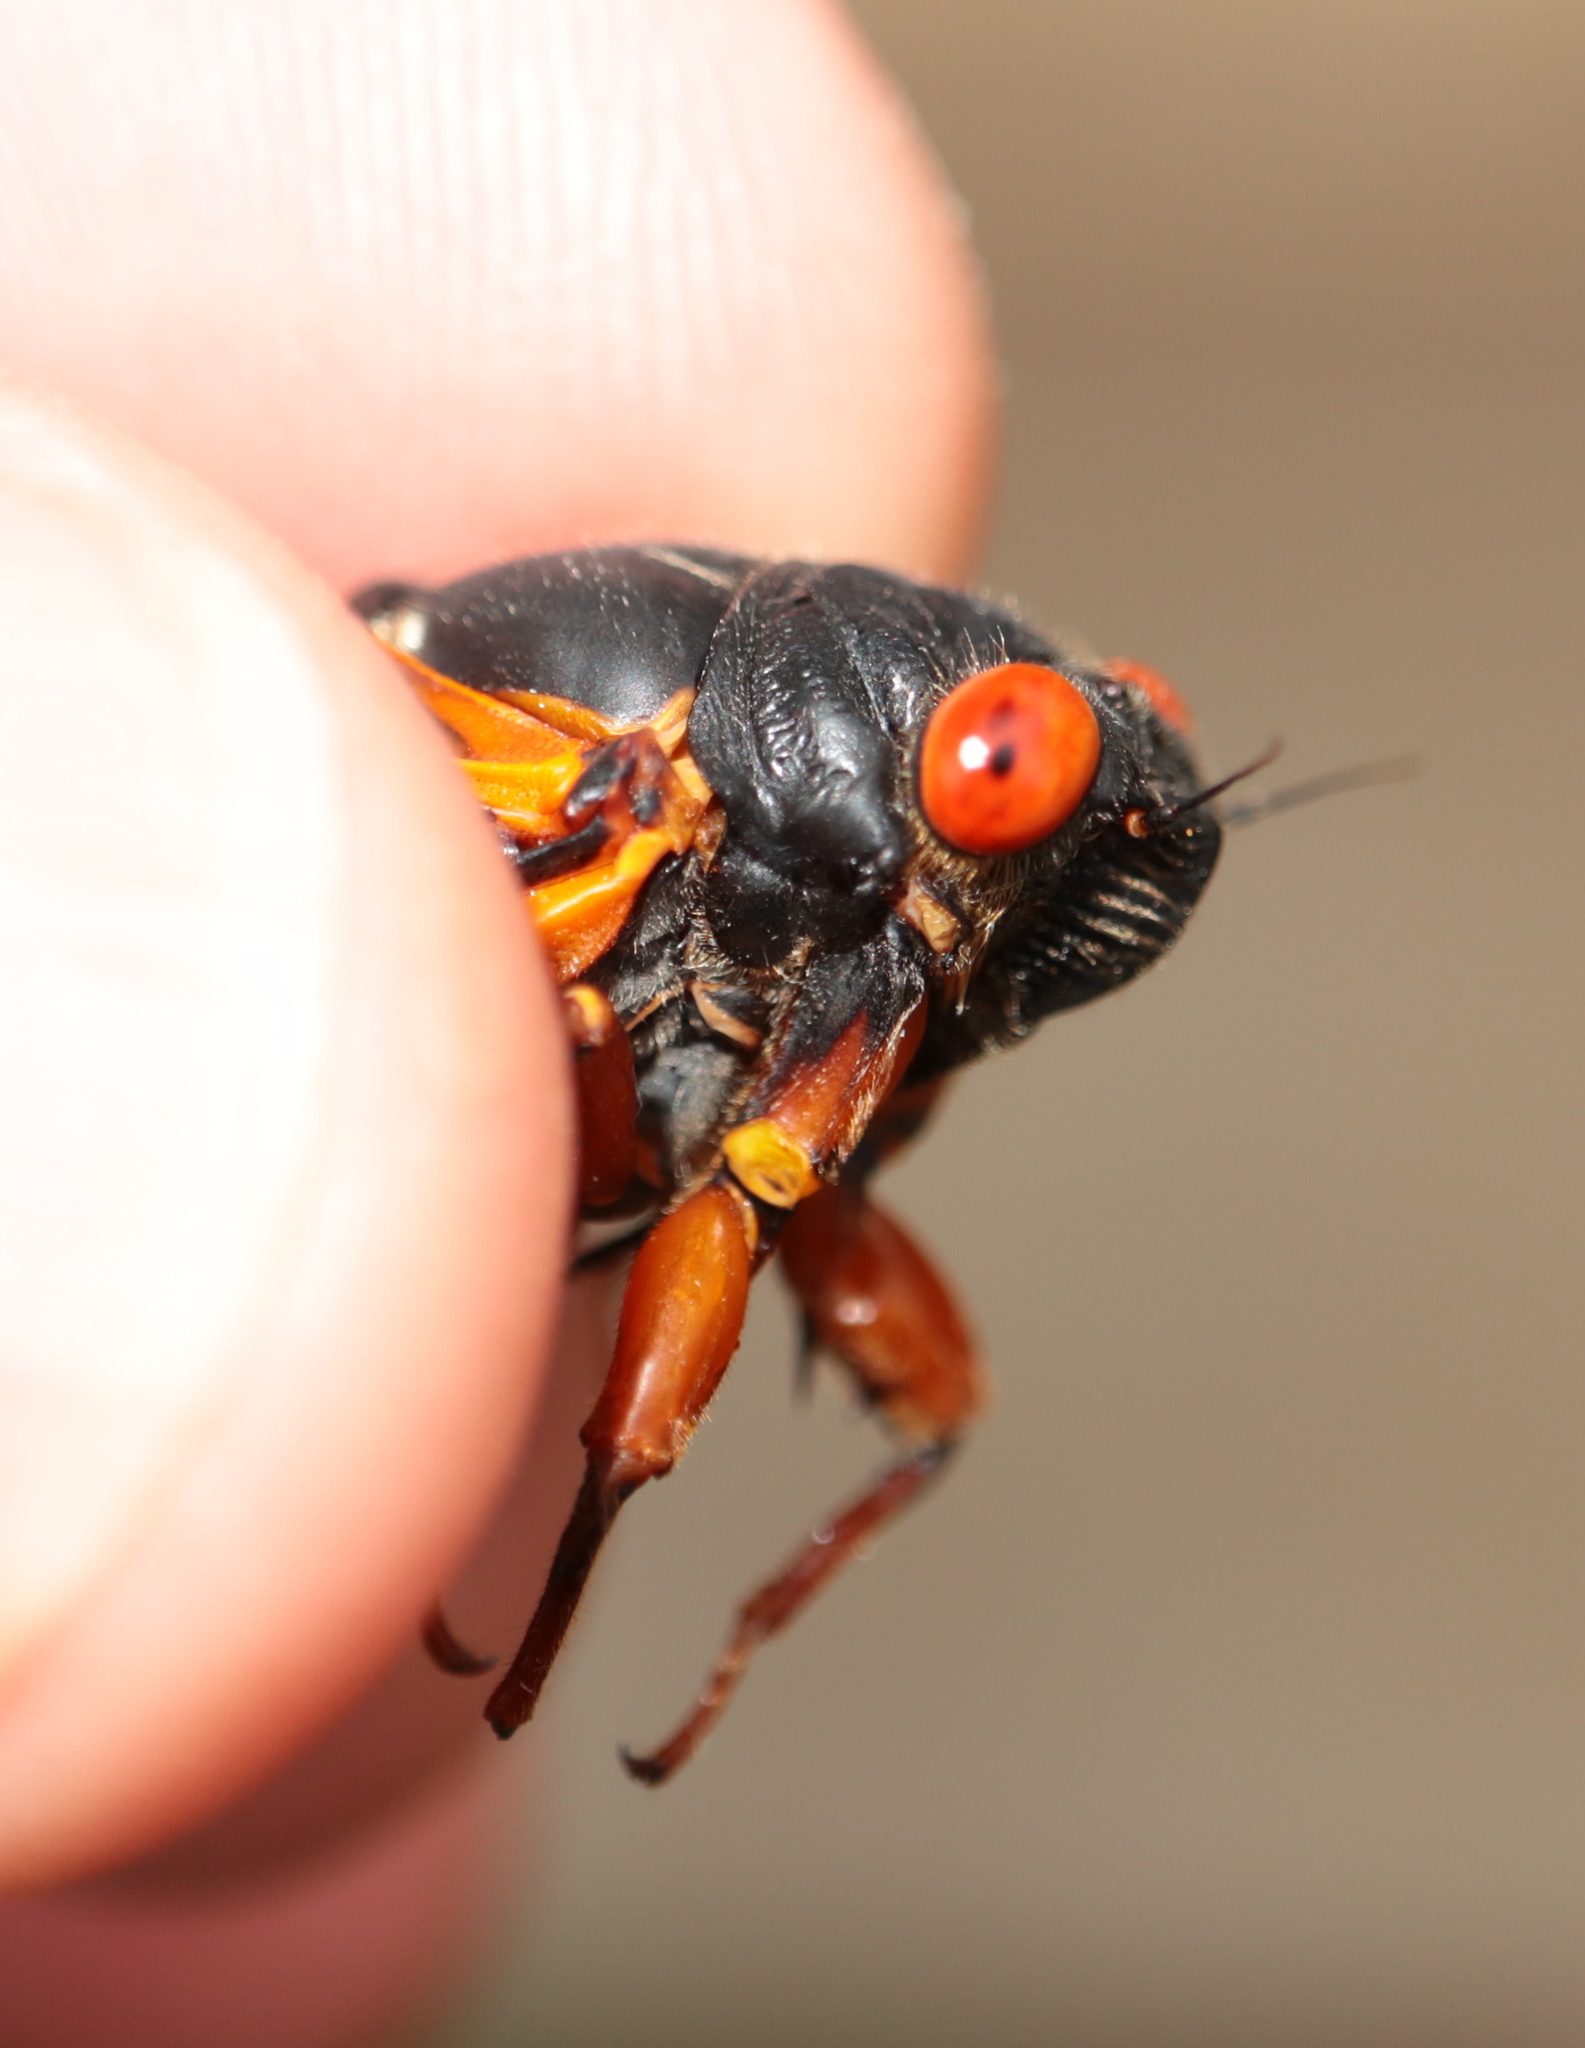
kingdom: Animalia
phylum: Arthropoda
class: Insecta
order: Hemiptera
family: Cicadidae
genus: Magicicada
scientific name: Magicicada septendecula
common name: Decula periodical cicada
